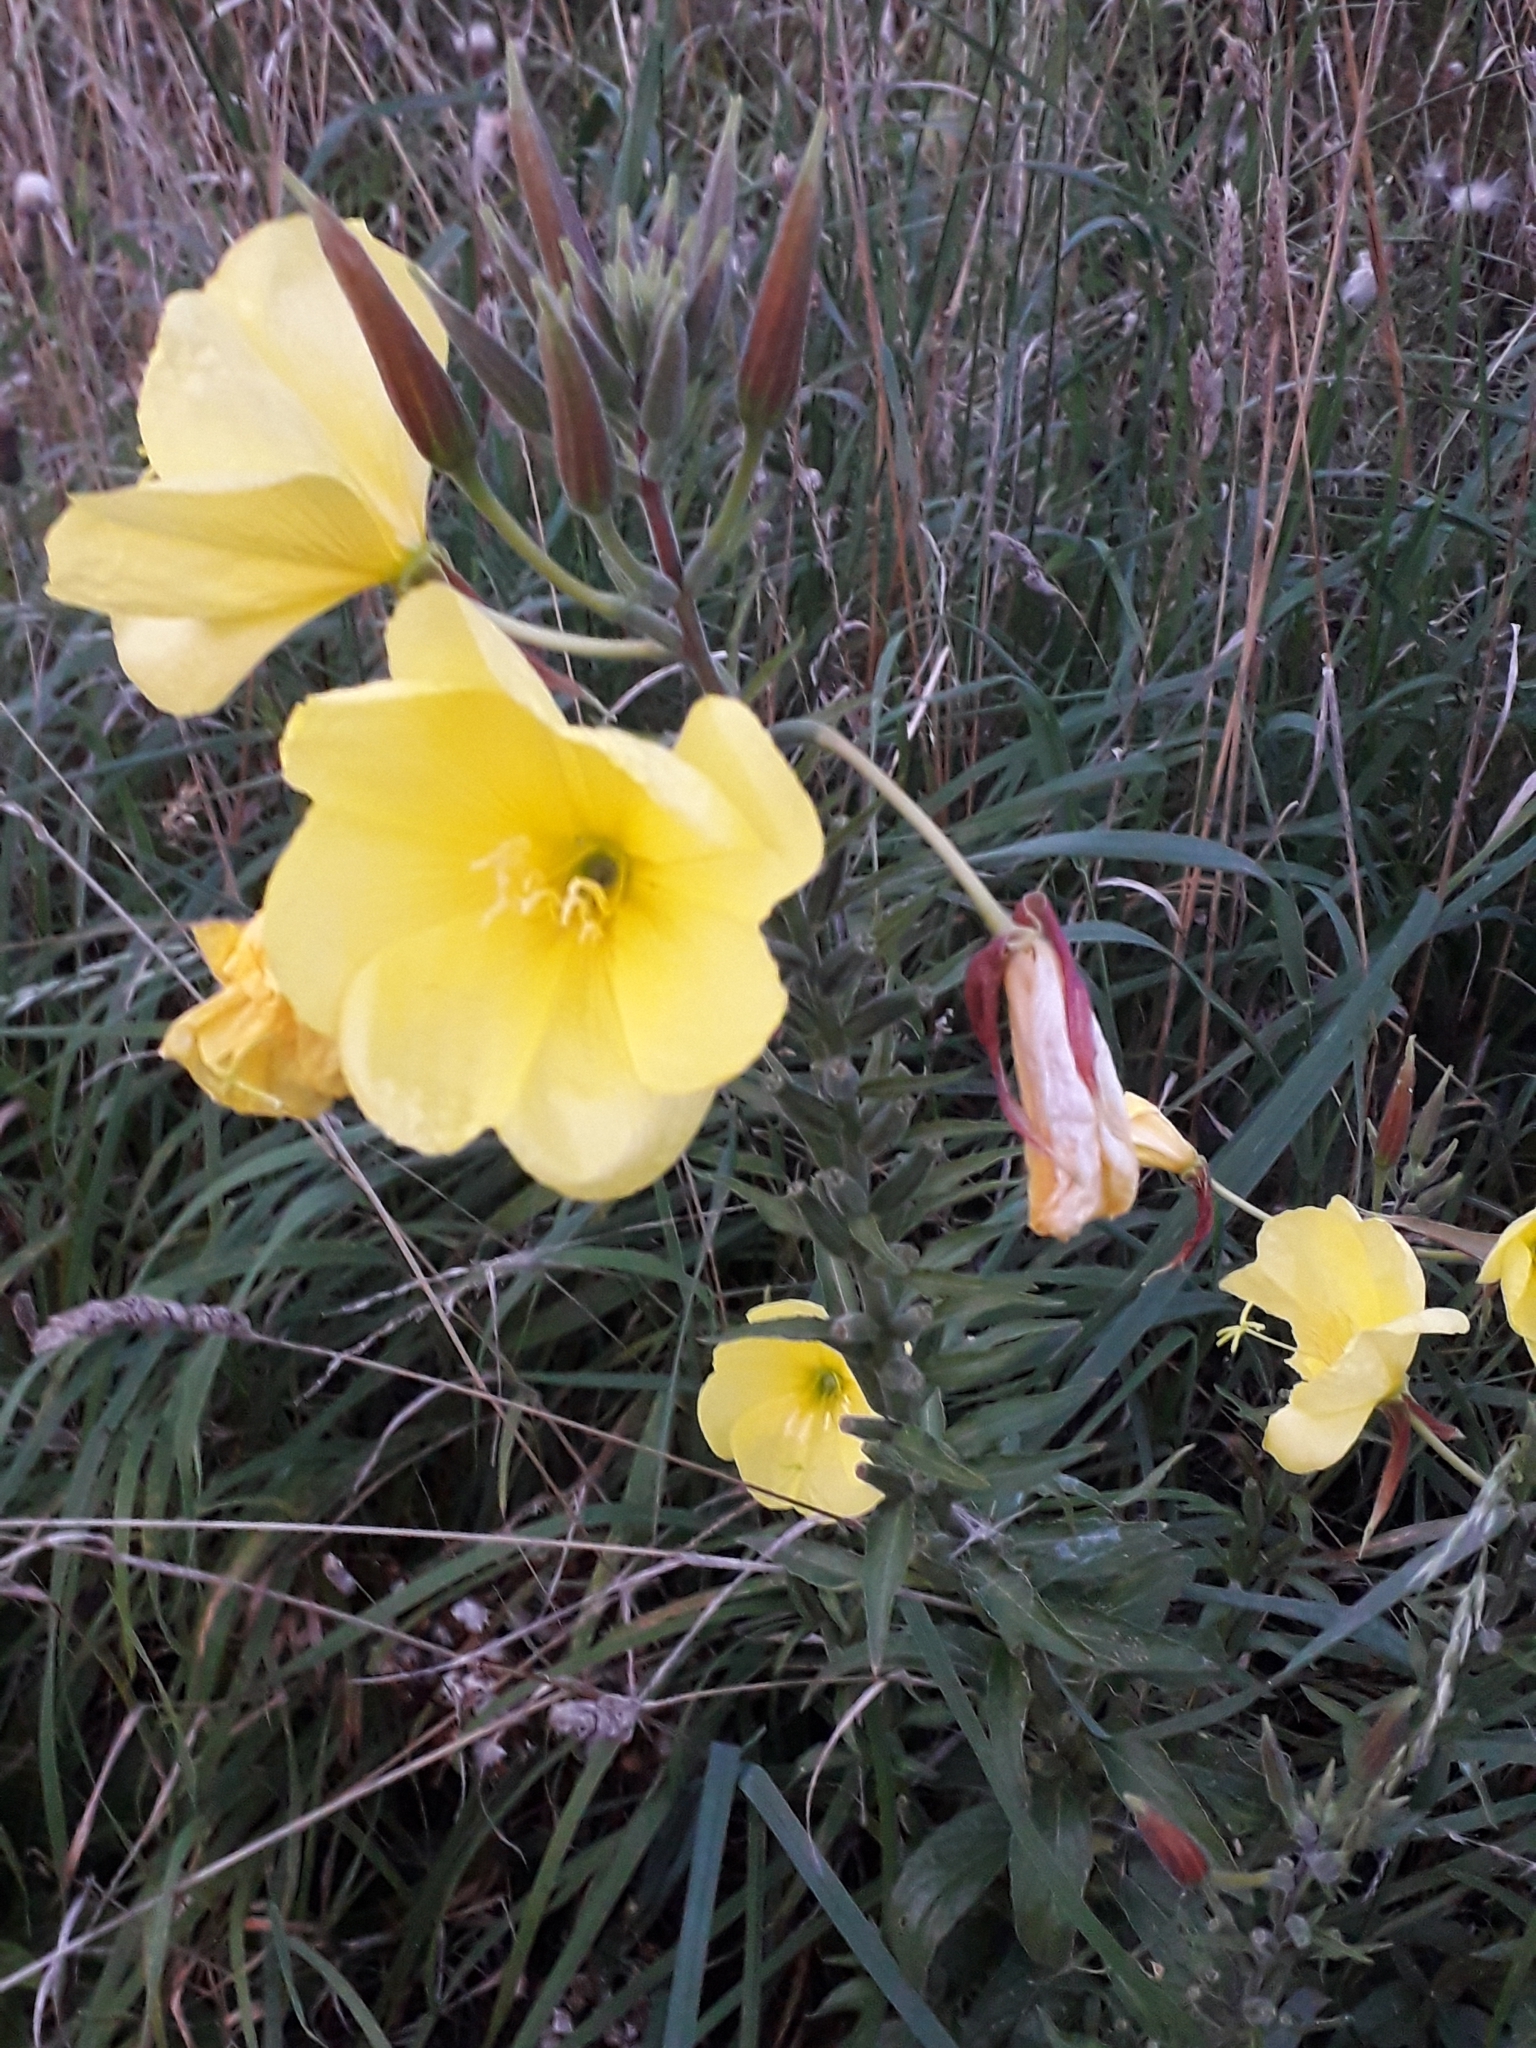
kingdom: Plantae
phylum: Tracheophyta
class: Magnoliopsida
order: Myrtales
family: Onagraceae
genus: Oenothera
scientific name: Oenothera glazioviana
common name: Large-flowered evening-primrose
